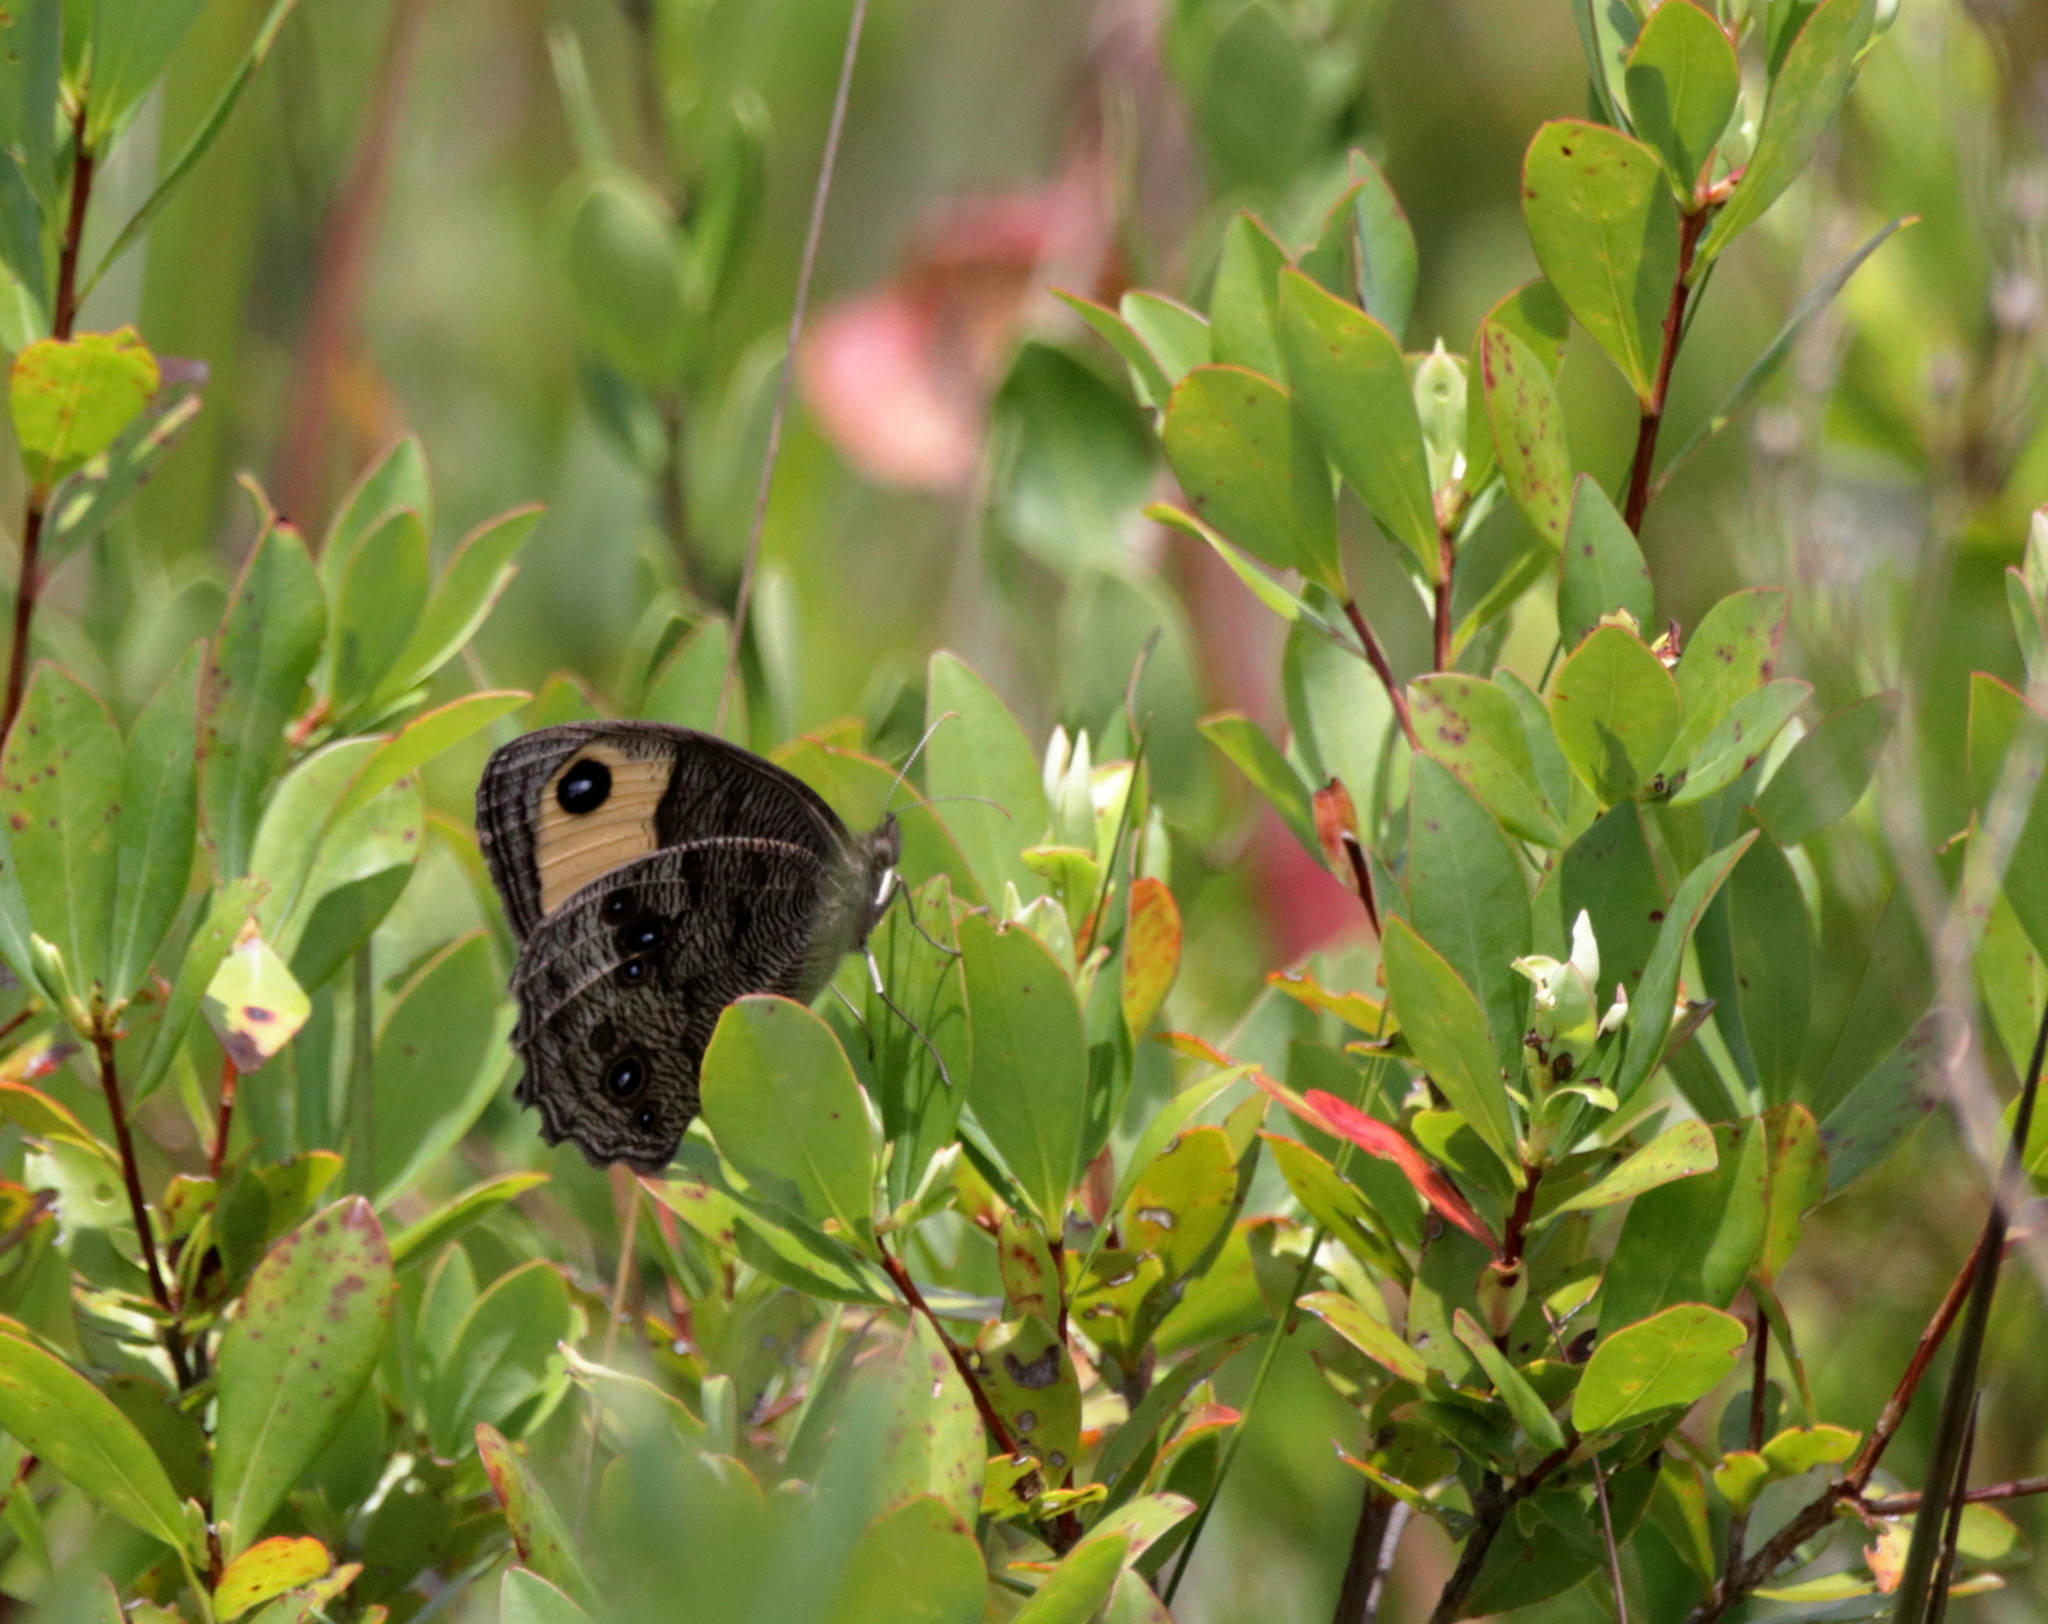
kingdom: Animalia
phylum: Arthropoda
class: Insecta
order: Lepidoptera
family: Nymphalidae
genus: Cercyonis
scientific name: Cercyonis pegala
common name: Common wood-nymph
